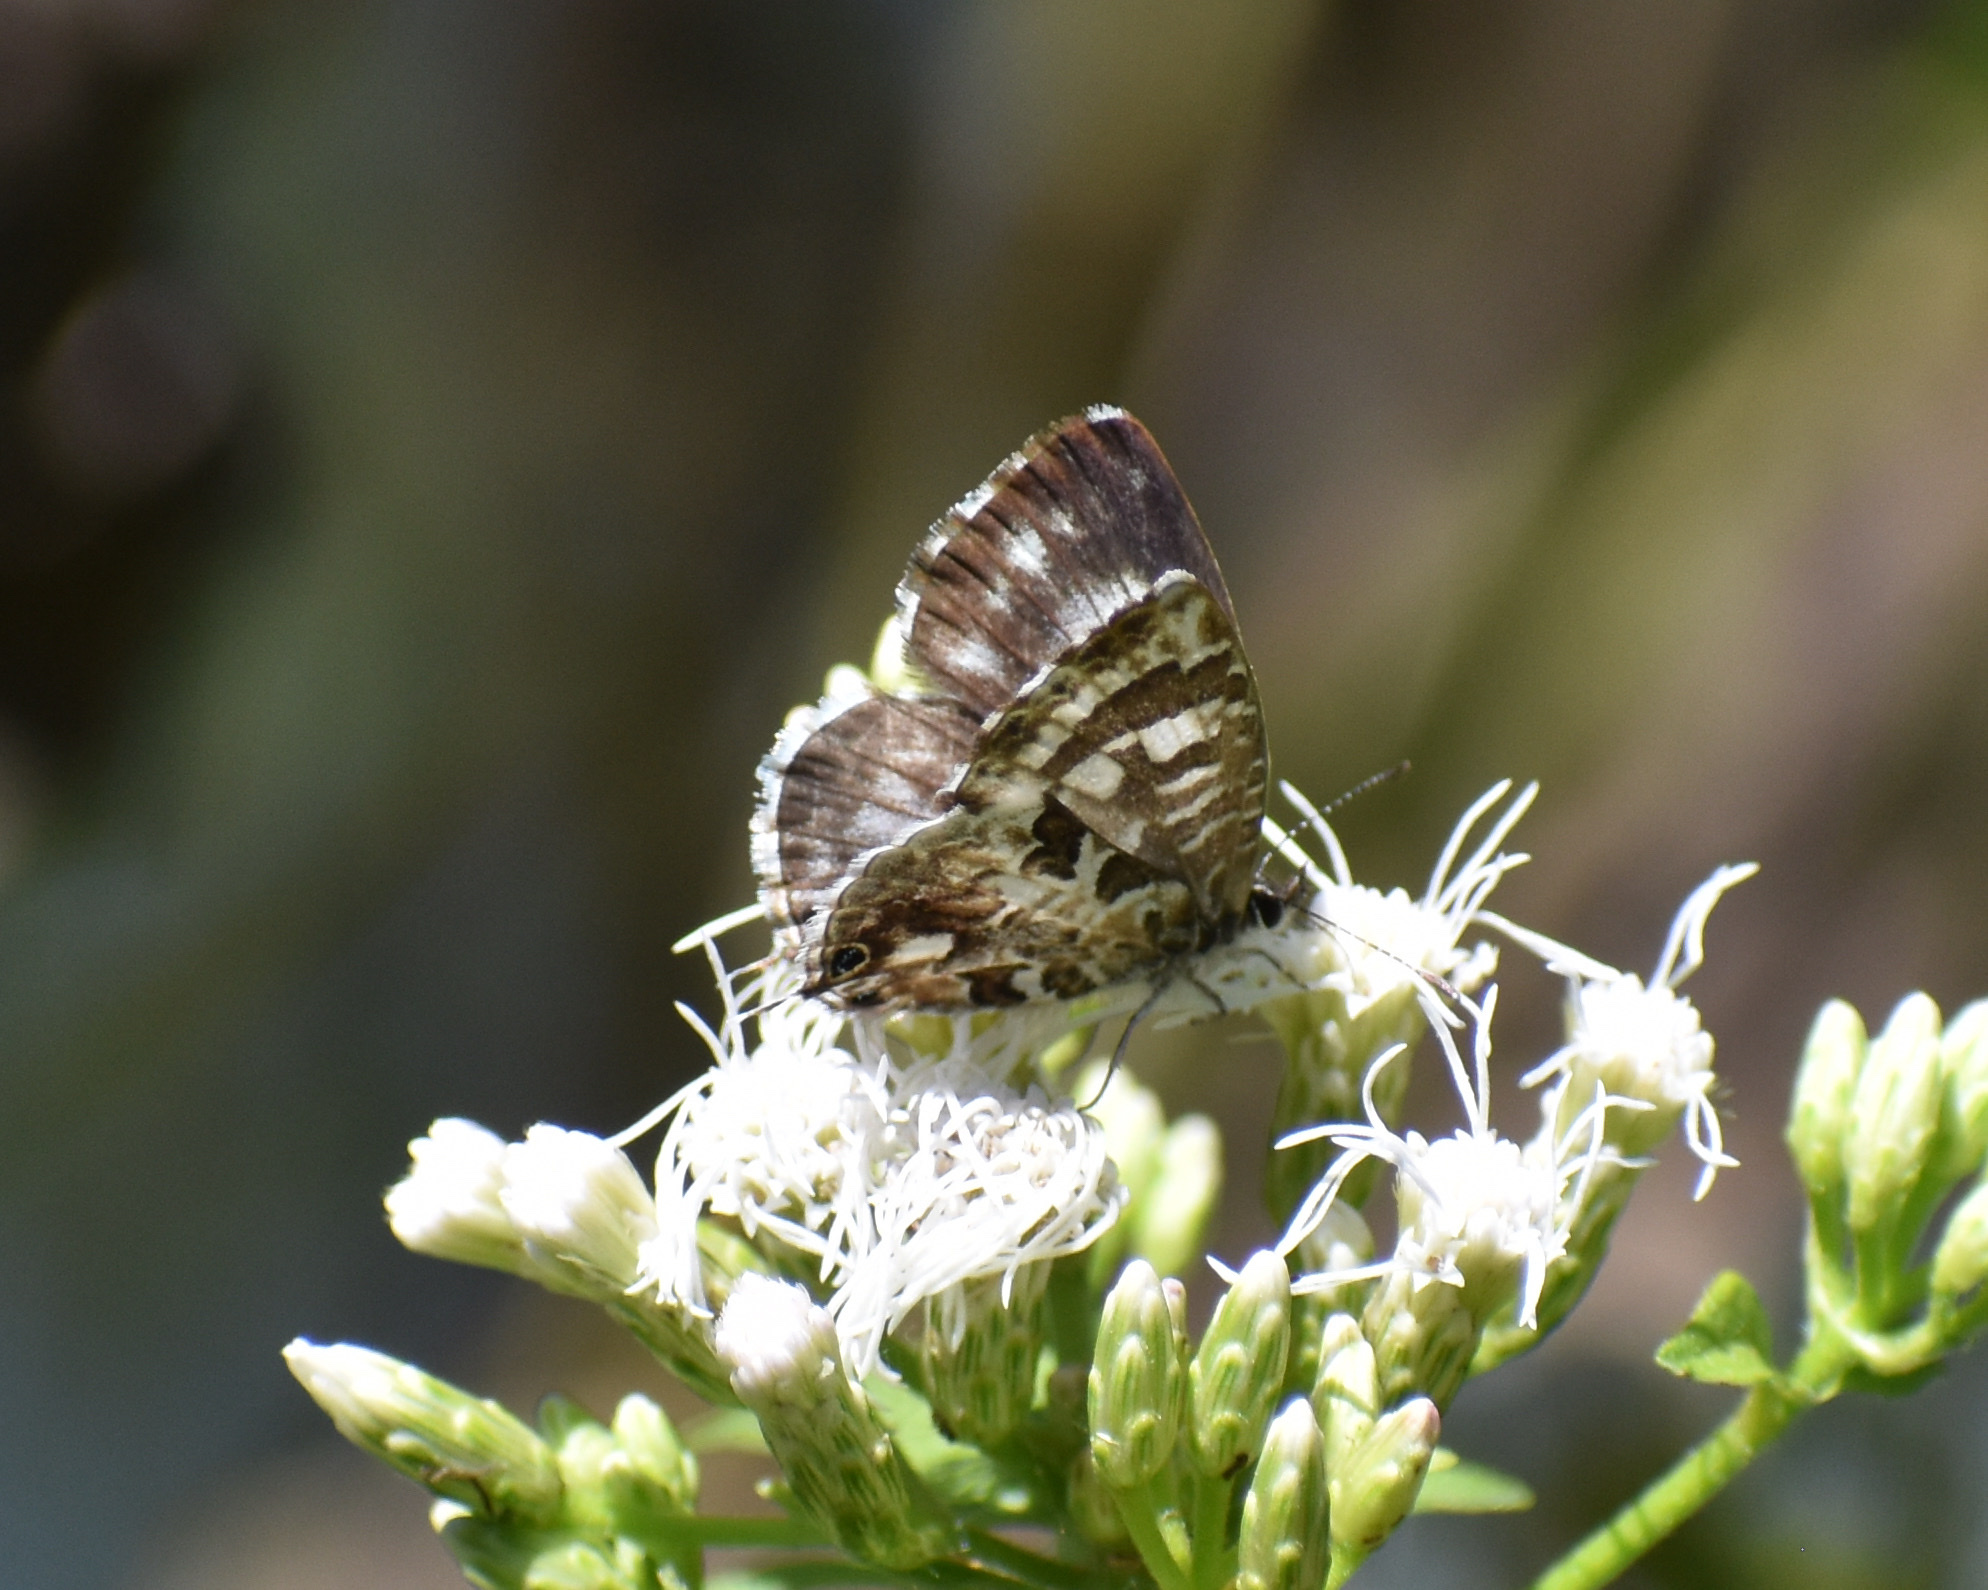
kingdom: Animalia
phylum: Arthropoda
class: Insecta
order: Lepidoptera
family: Lycaenidae
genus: Cacyreus
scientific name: Cacyreus lingeus
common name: Bush bronze
